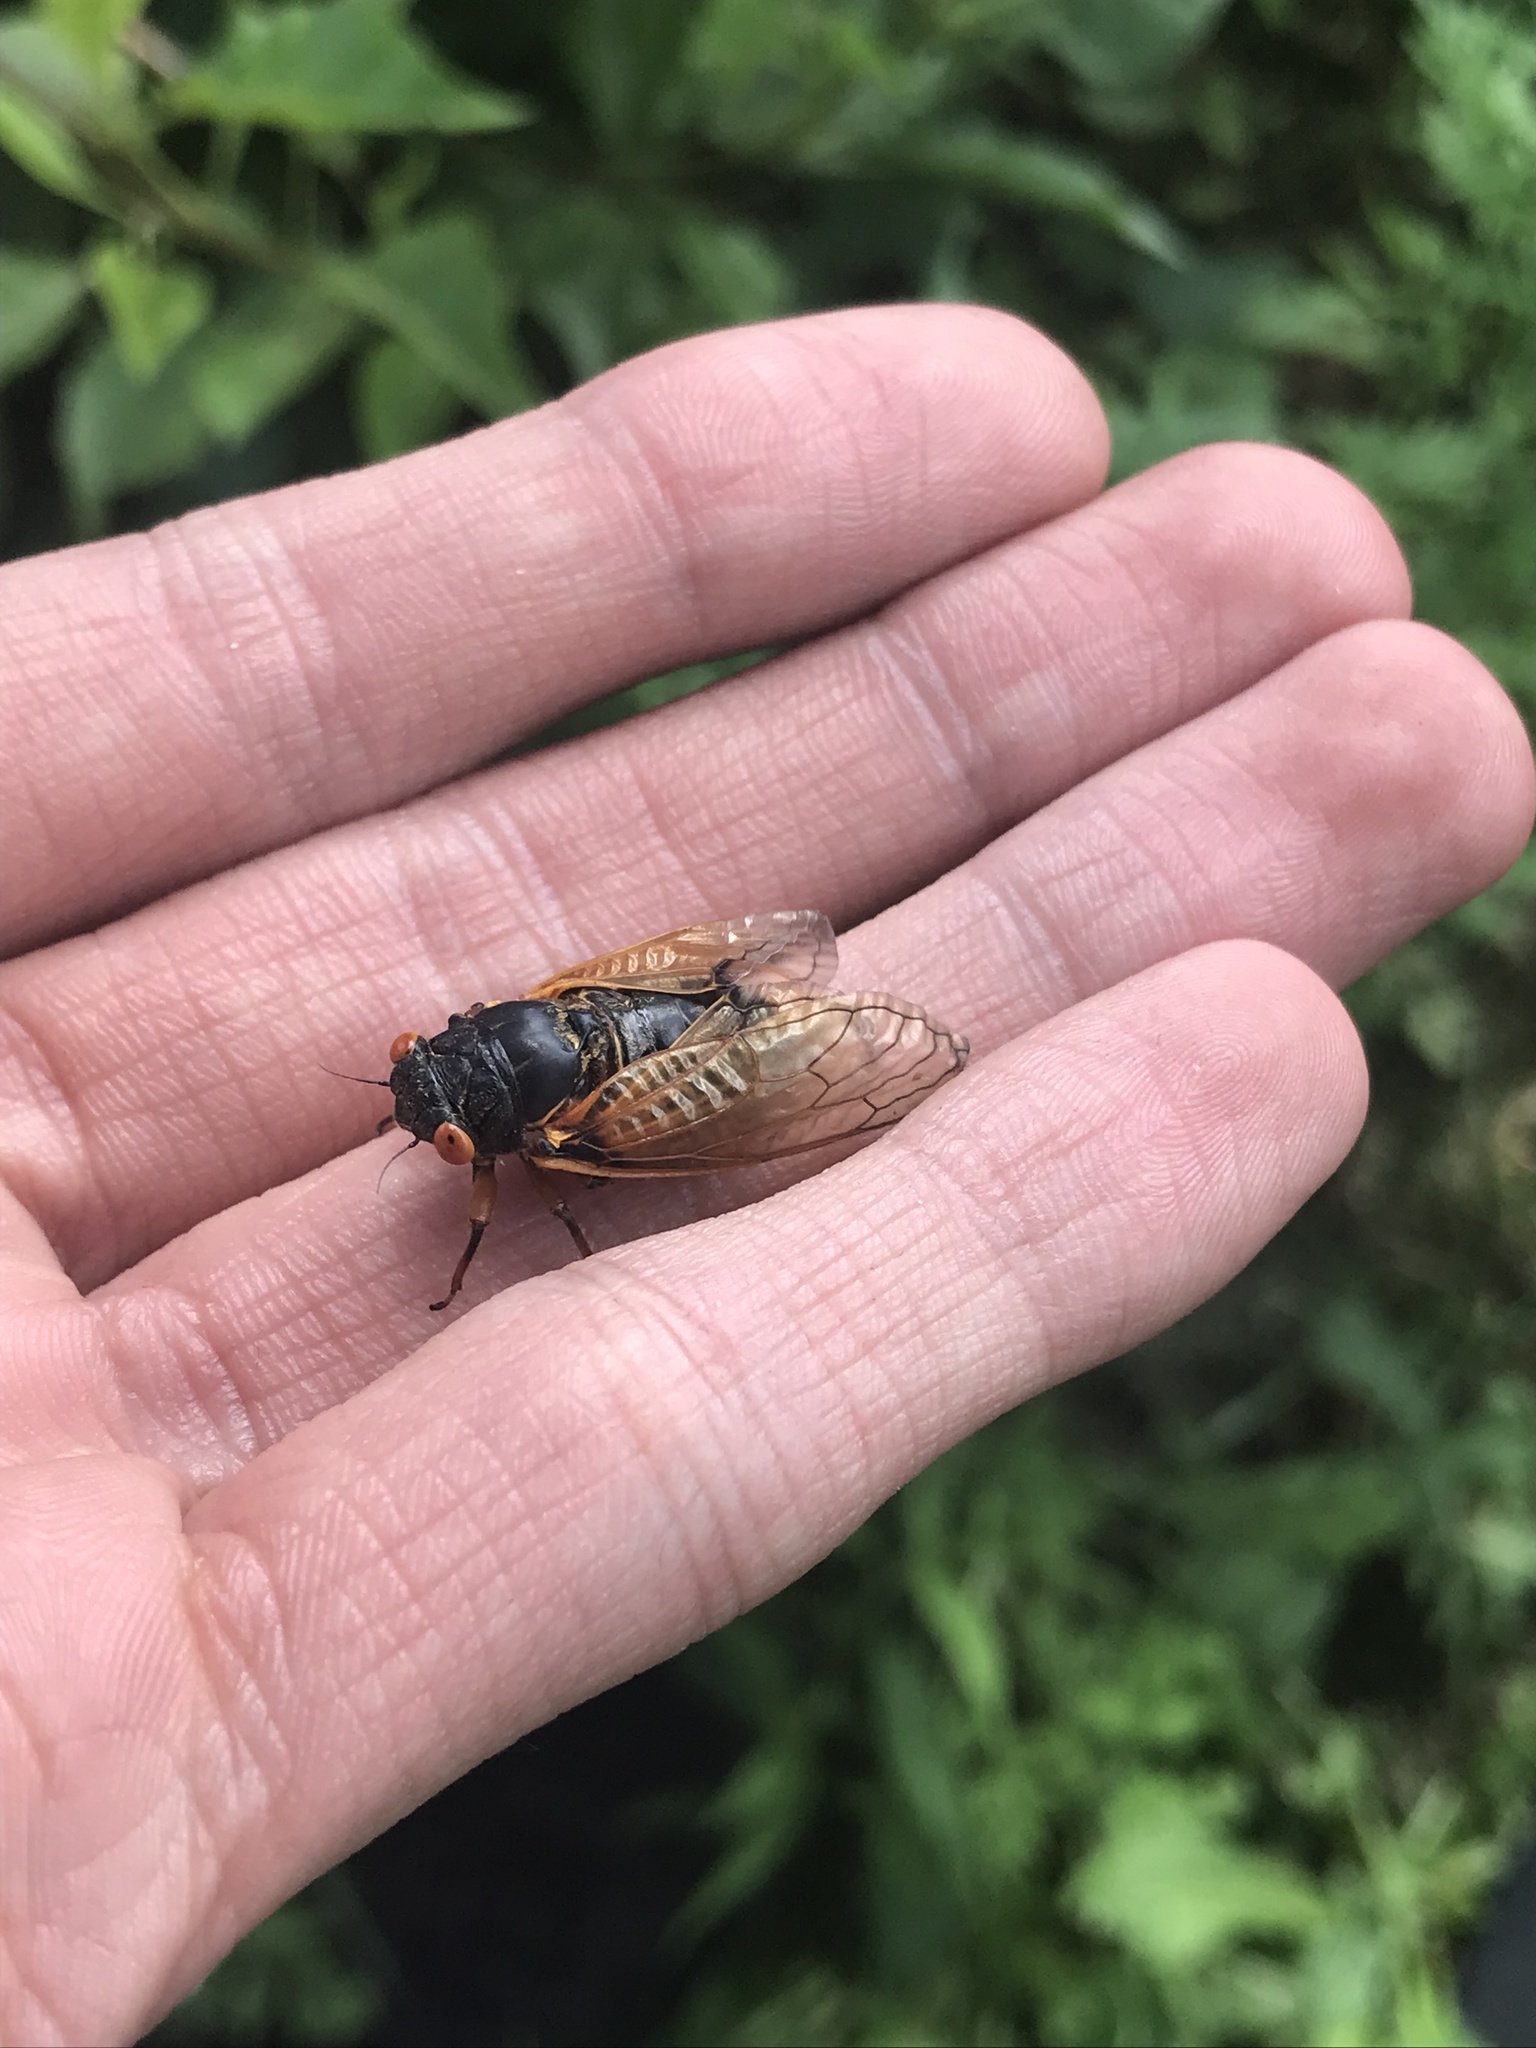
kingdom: Animalia
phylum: Arthropoda
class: Insecta
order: Hemiptera
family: Cicadidae
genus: Magicicada
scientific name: Magicicada cassini
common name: Cassin's 17-year cicada
